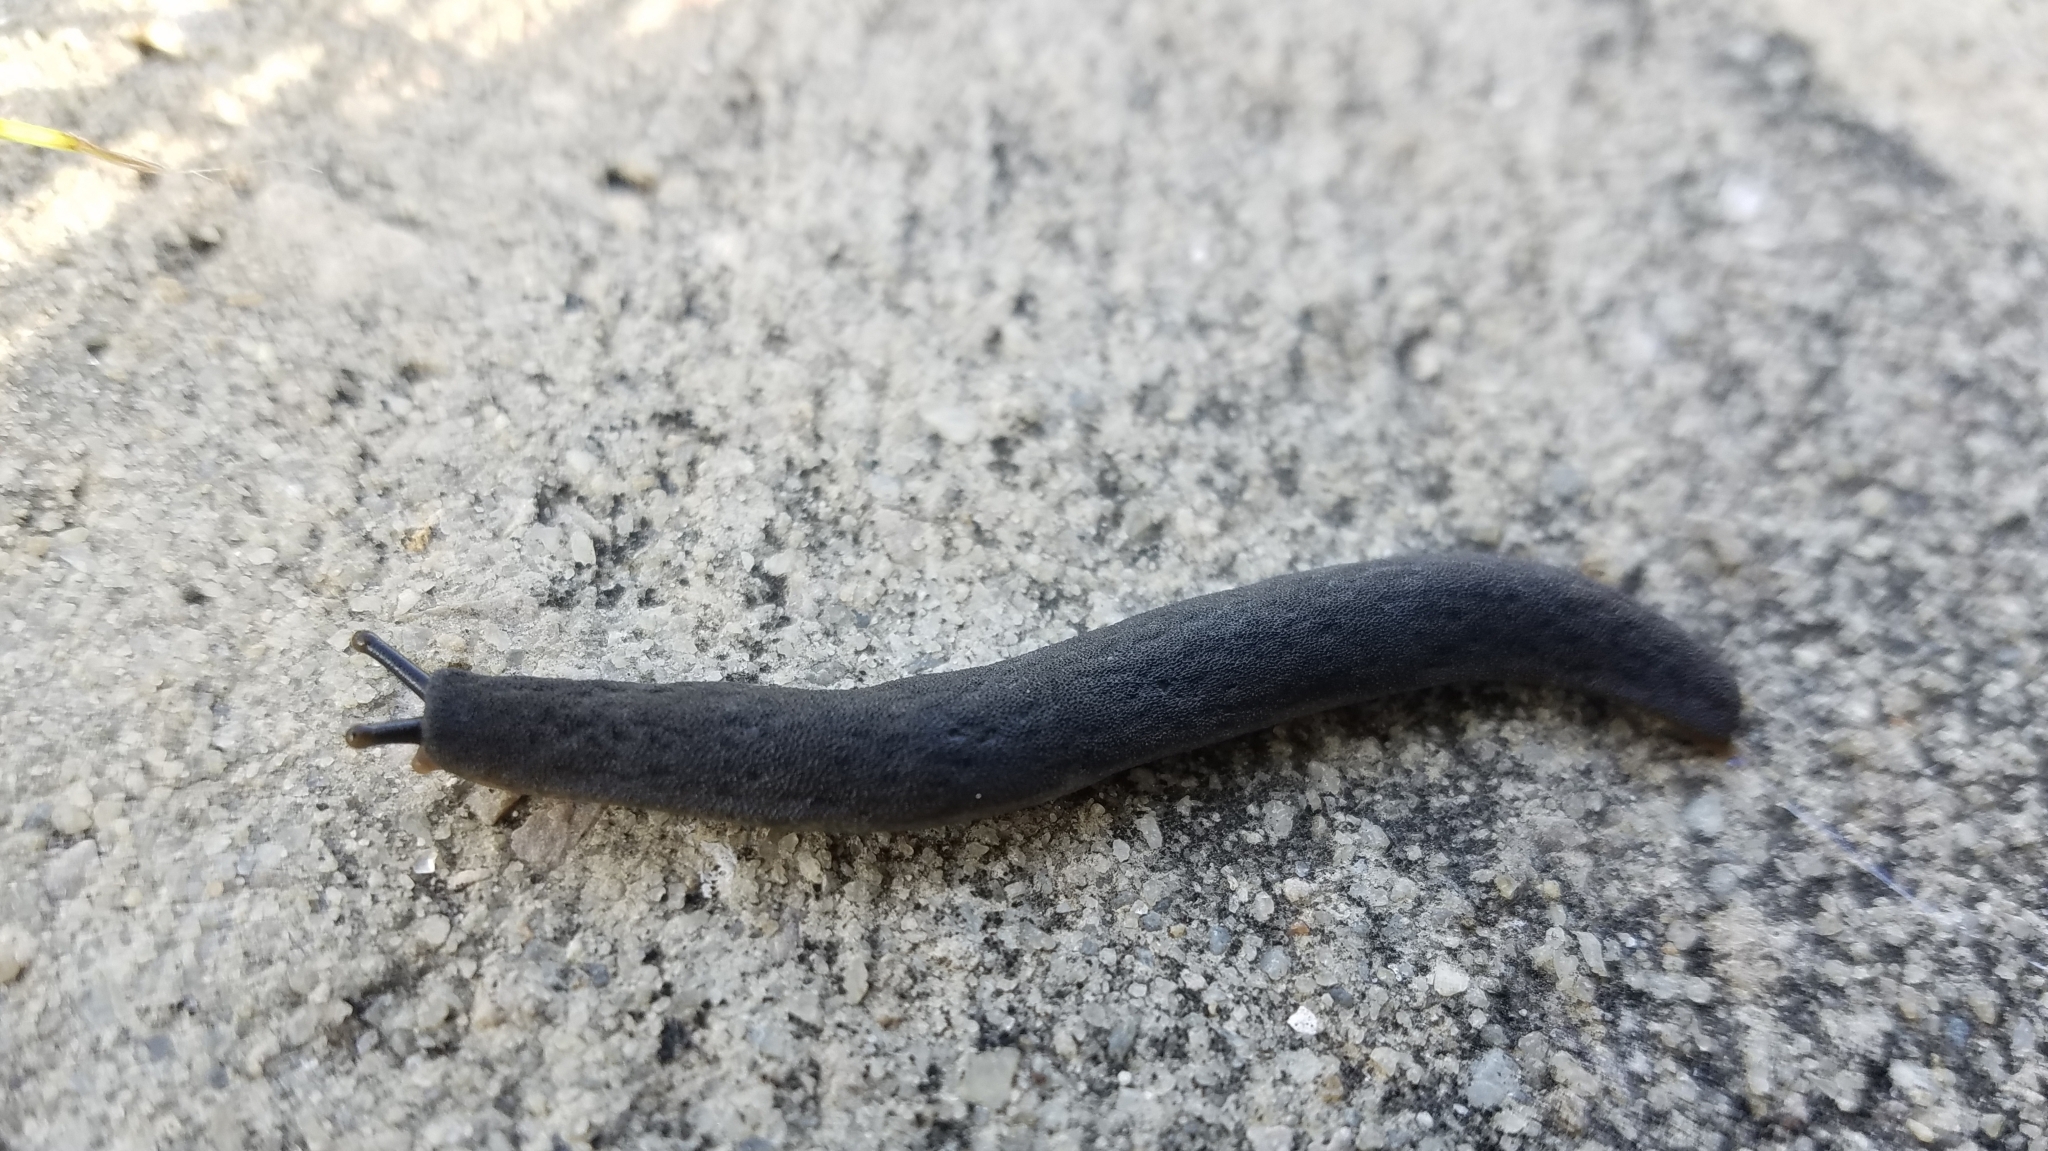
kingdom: Animalia
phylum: Mollusca
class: Gastropoda
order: Systellommatophora
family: Veronicellidae
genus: Belocaulus
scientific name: Belocaulus angustipes
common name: Black velvet leatherleaf slug
